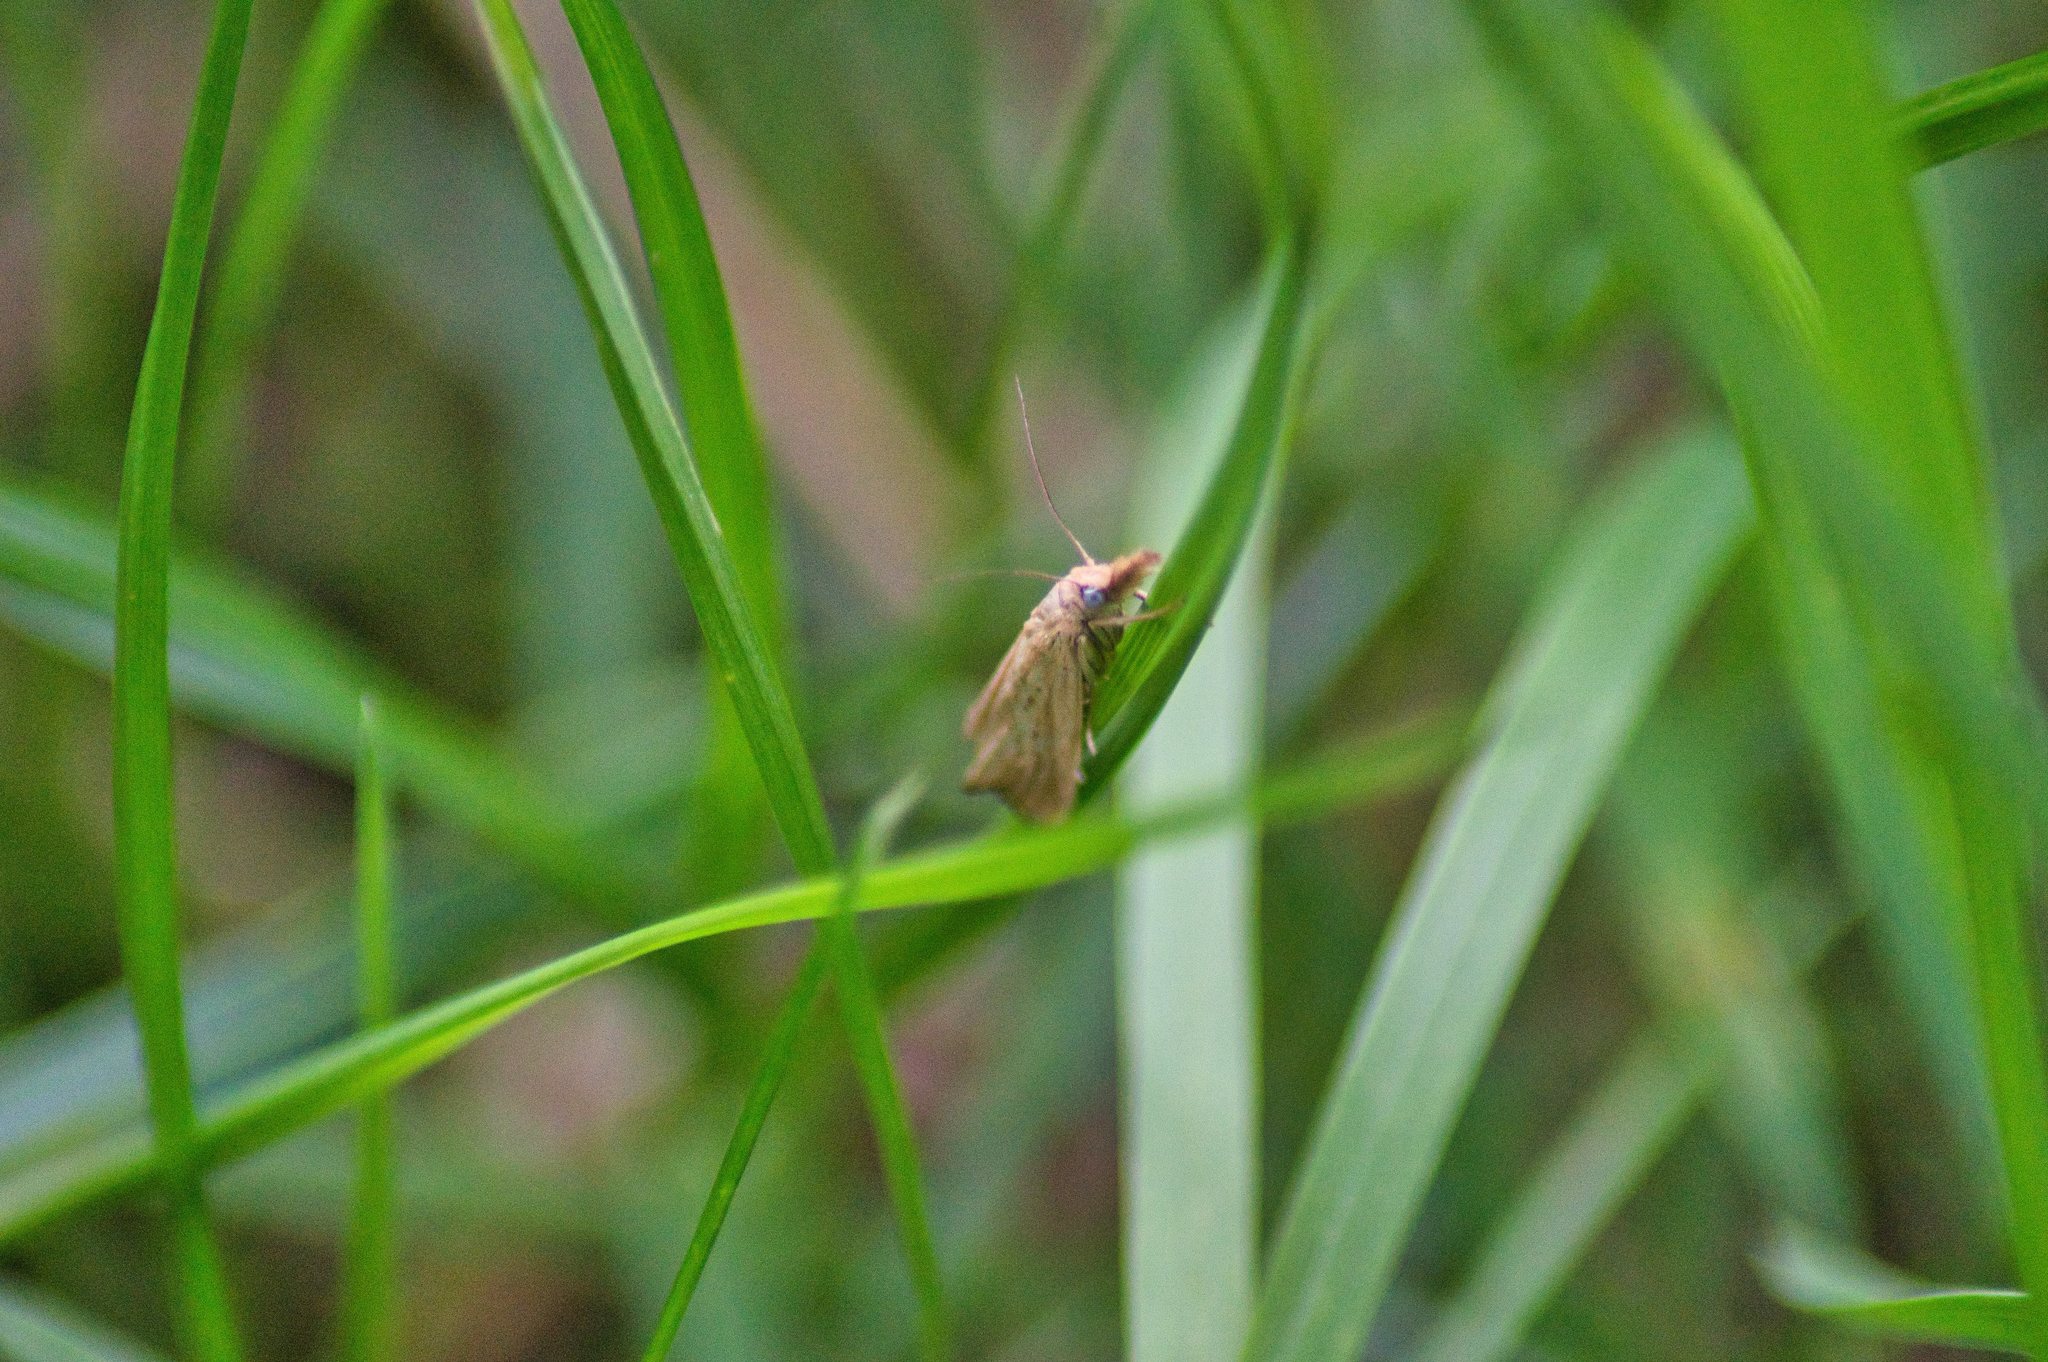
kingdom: Animalia
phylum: Arthropoda
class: Insecta
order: Lepidoptera
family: Crambidae
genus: Agriphila
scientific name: Agriphila straminella
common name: Straw grass-veneer
